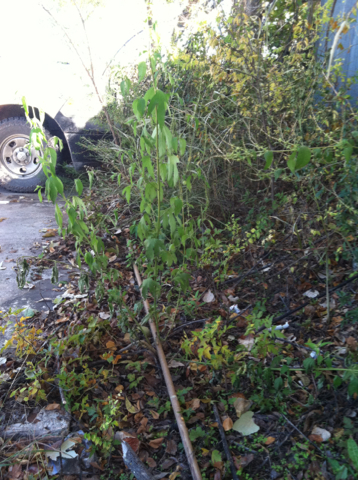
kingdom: Plantae
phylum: Tracheophyta
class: Magnoliopsida
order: Asterales
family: Asteraceae
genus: Ambrosia
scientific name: Ambrosia trifida
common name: Giant ragweed
